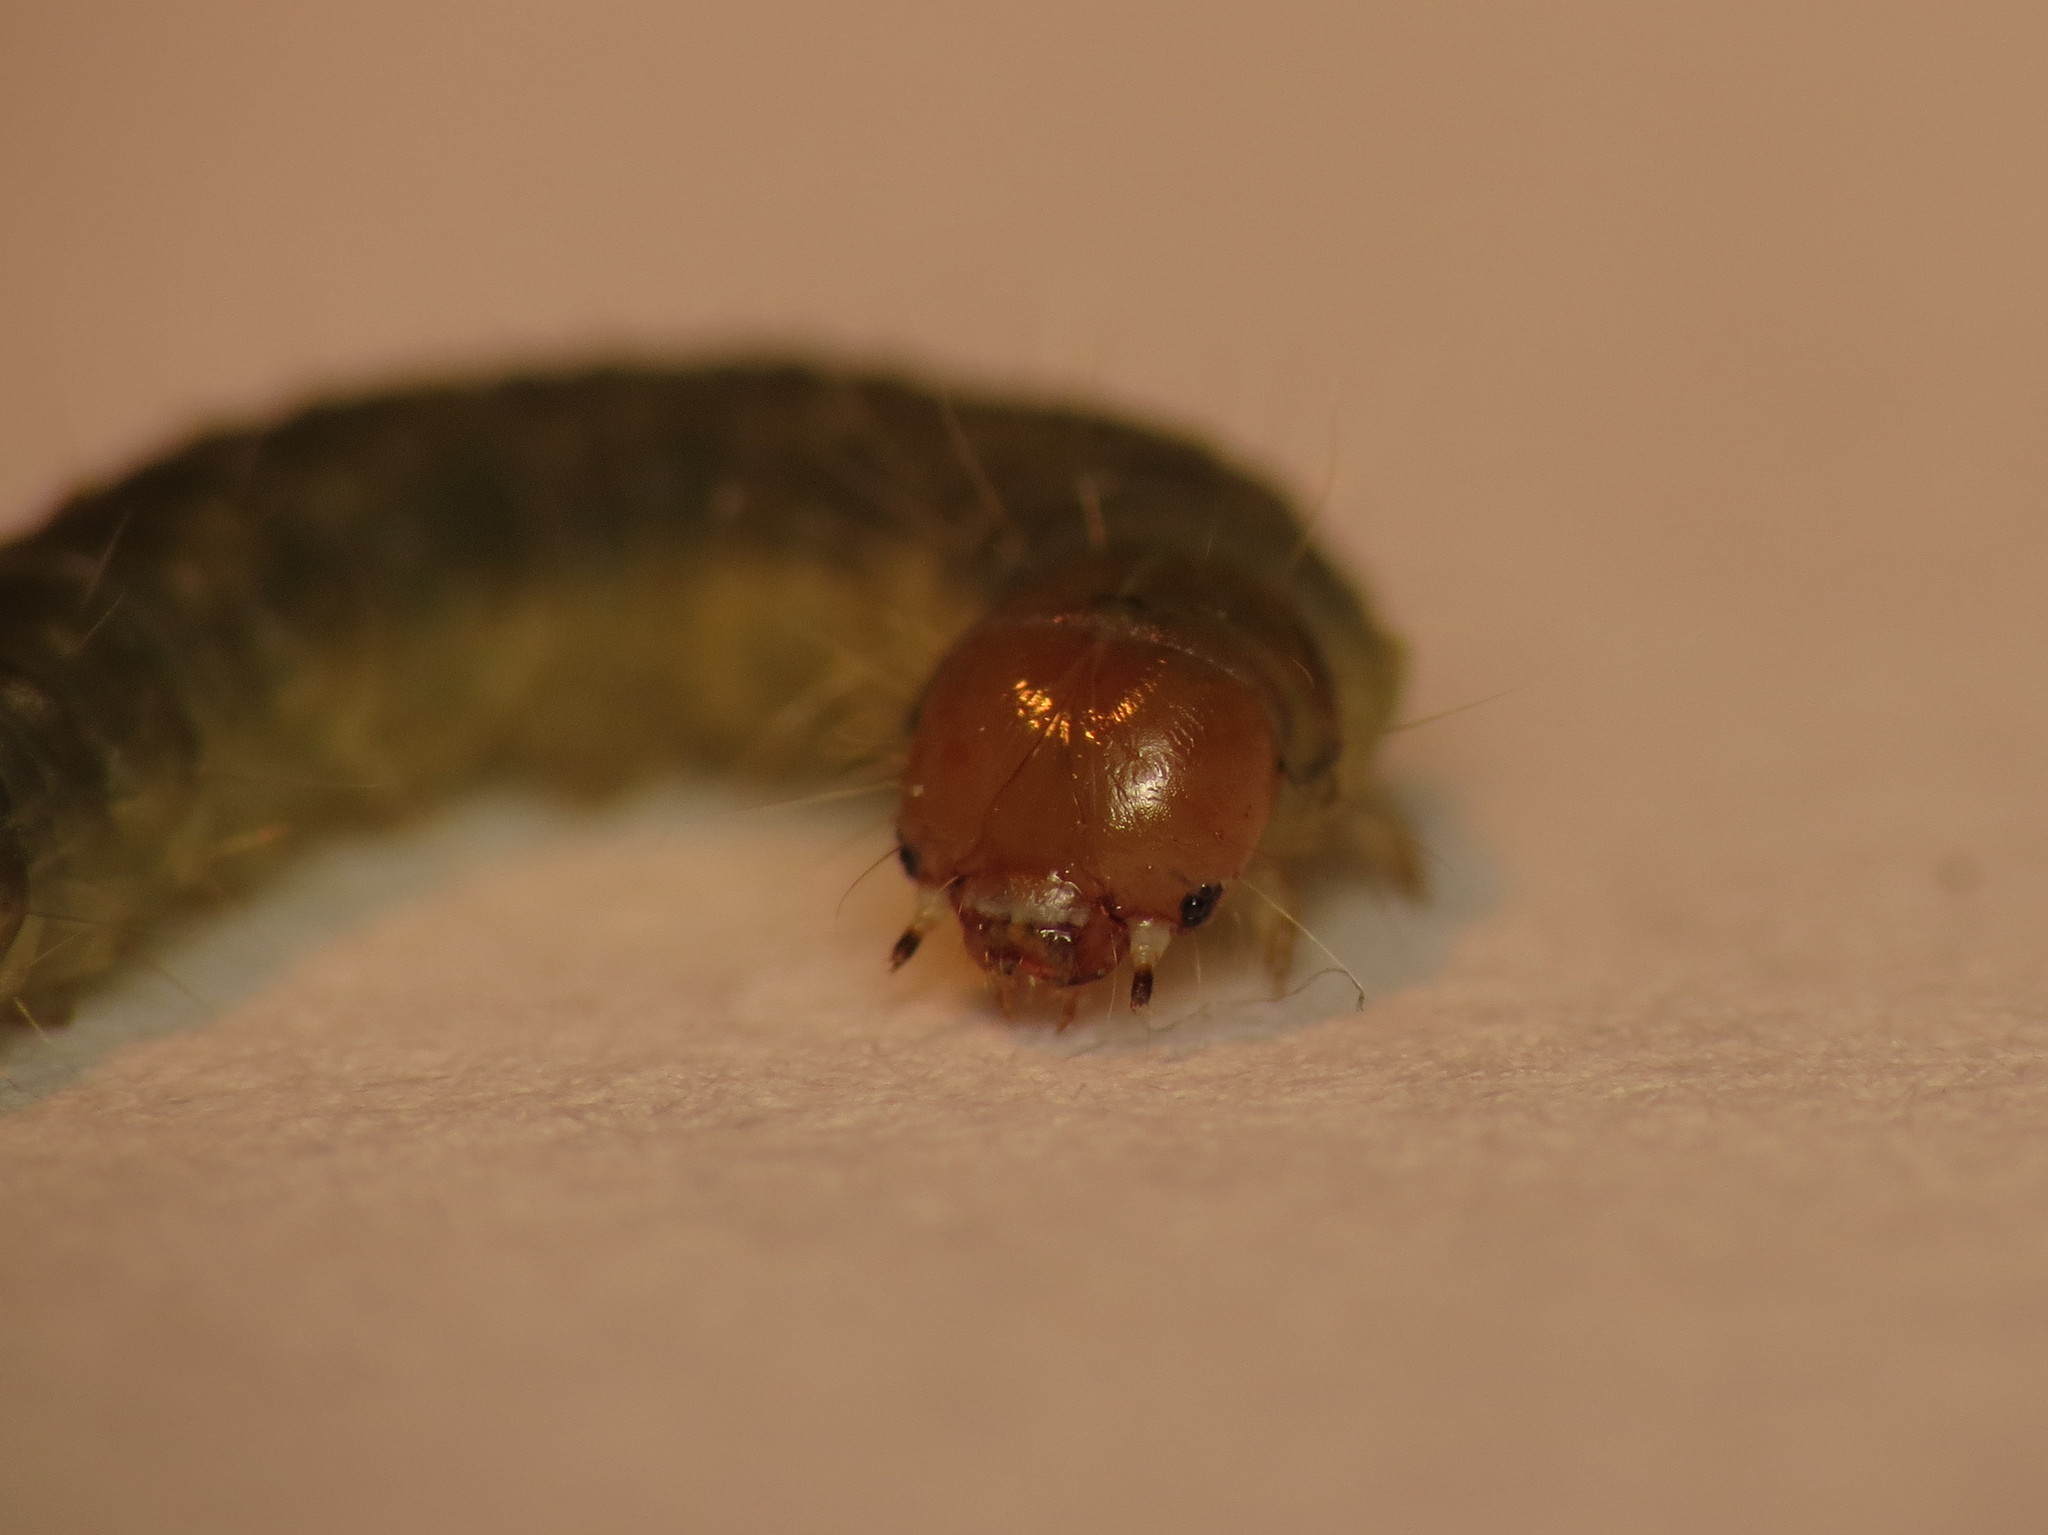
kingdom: Animalia
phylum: Arthropoda
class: Insecta
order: Lepidoptera
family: Tortricidae
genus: Ditula
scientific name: Ditula angustiorana
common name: Red-barred tortrix
